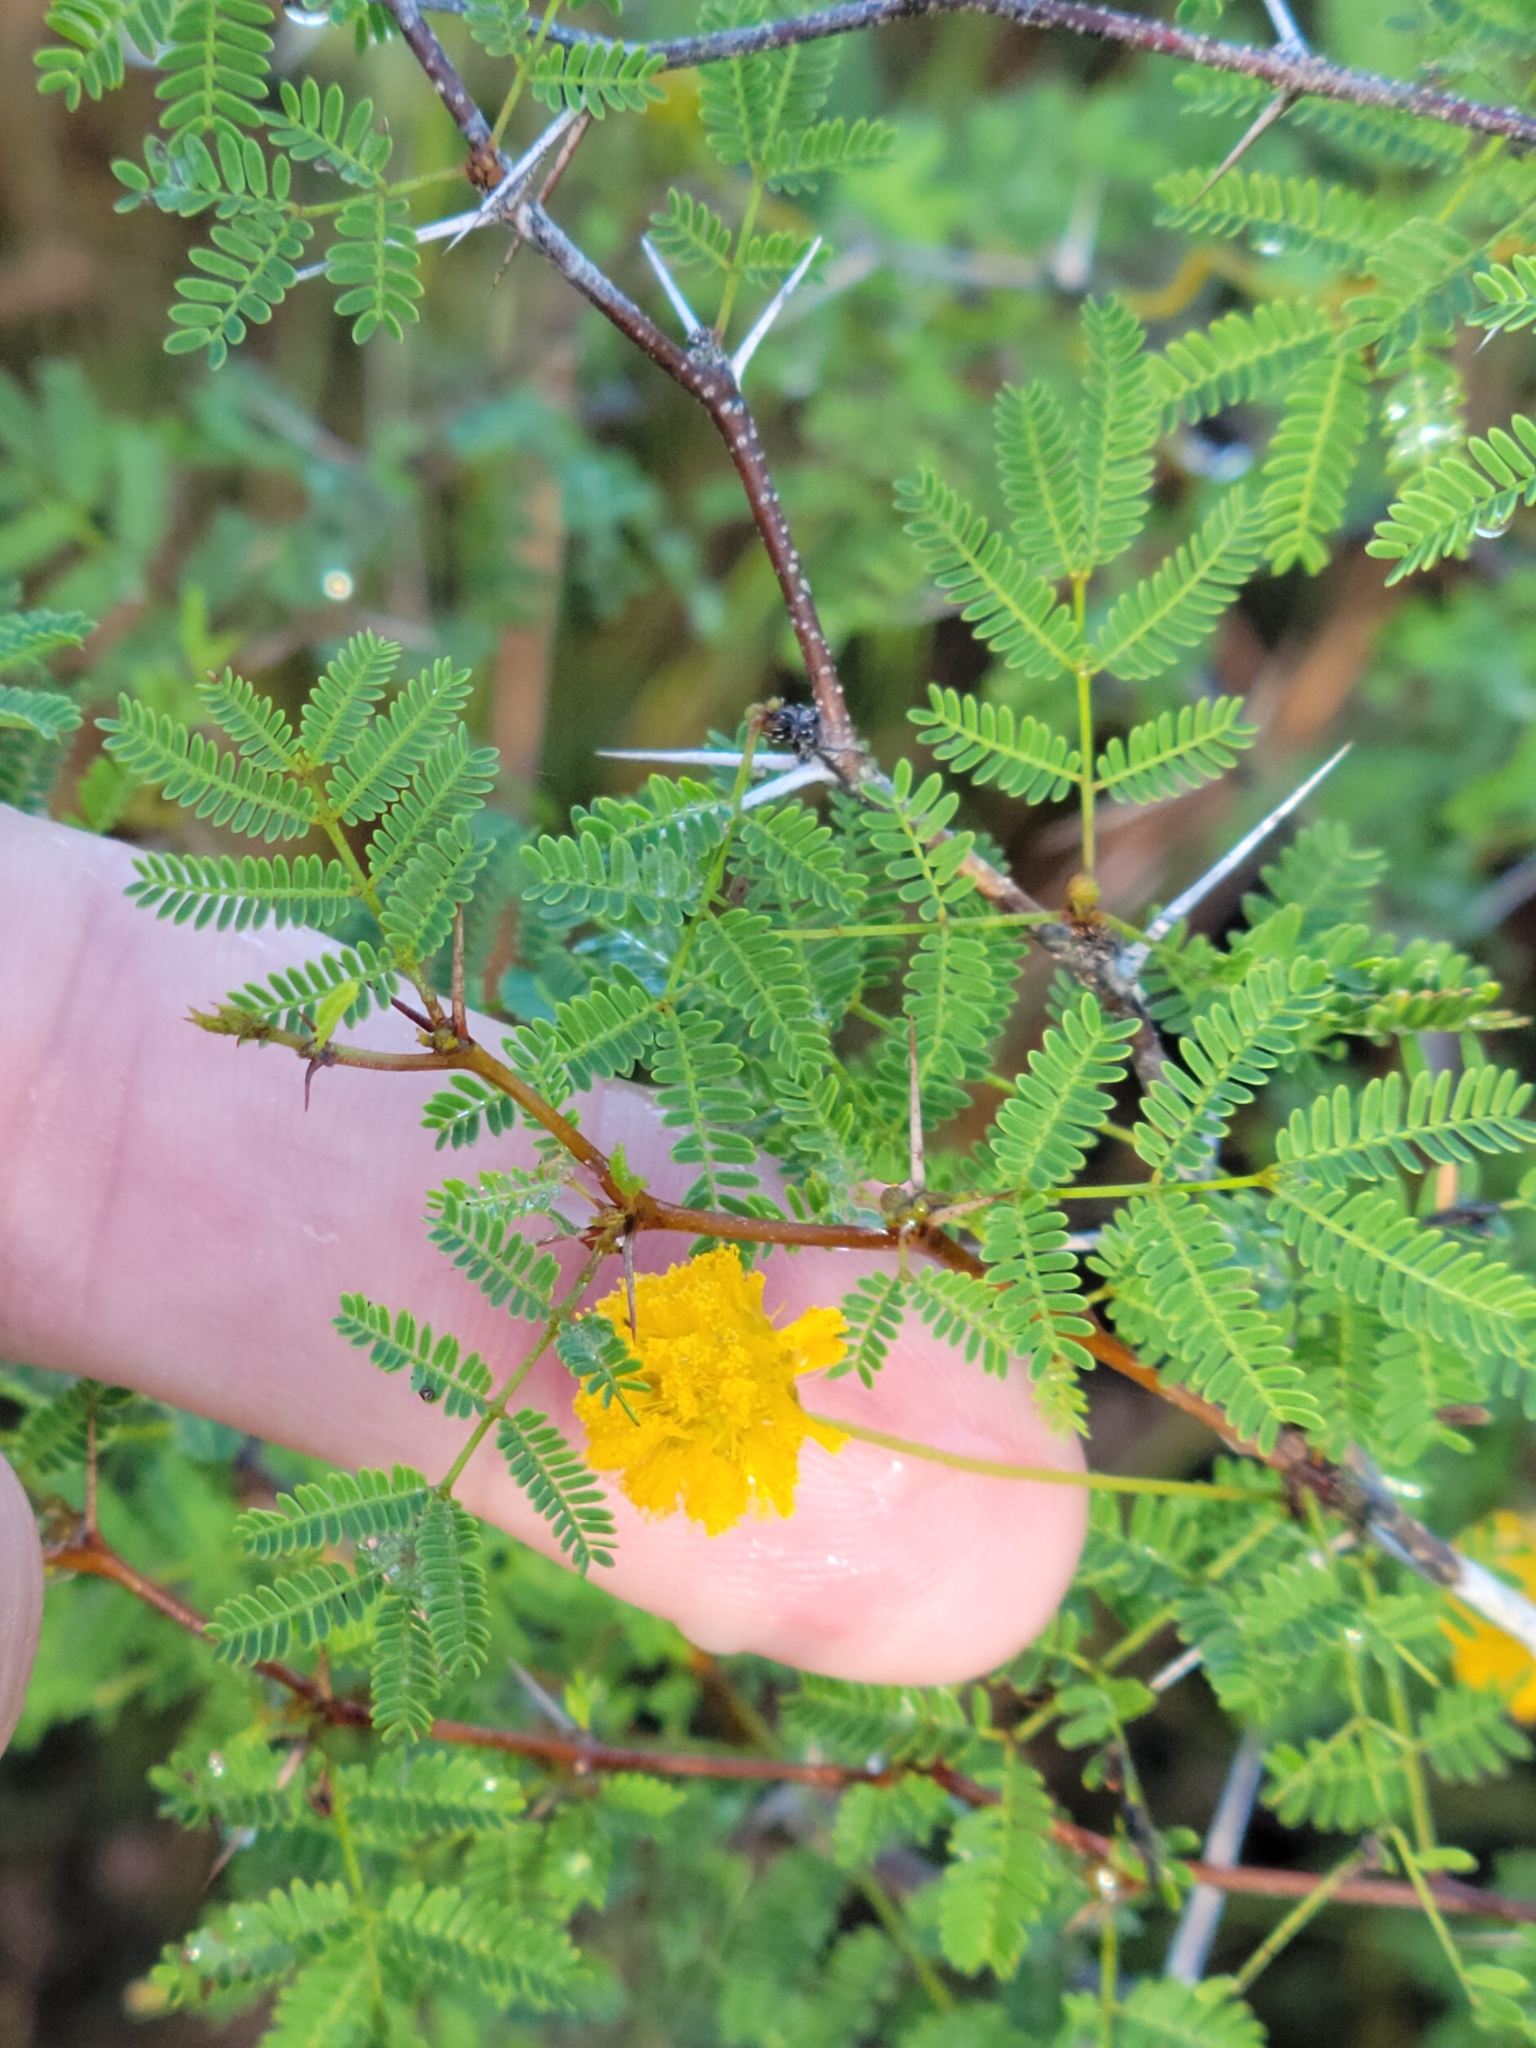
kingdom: Plantae
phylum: Tracheophyta
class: Magnoliopsida
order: Fabales
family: Fabaceae
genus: Vachellia
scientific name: Vachellia farnesiana
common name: Sweet acacia
